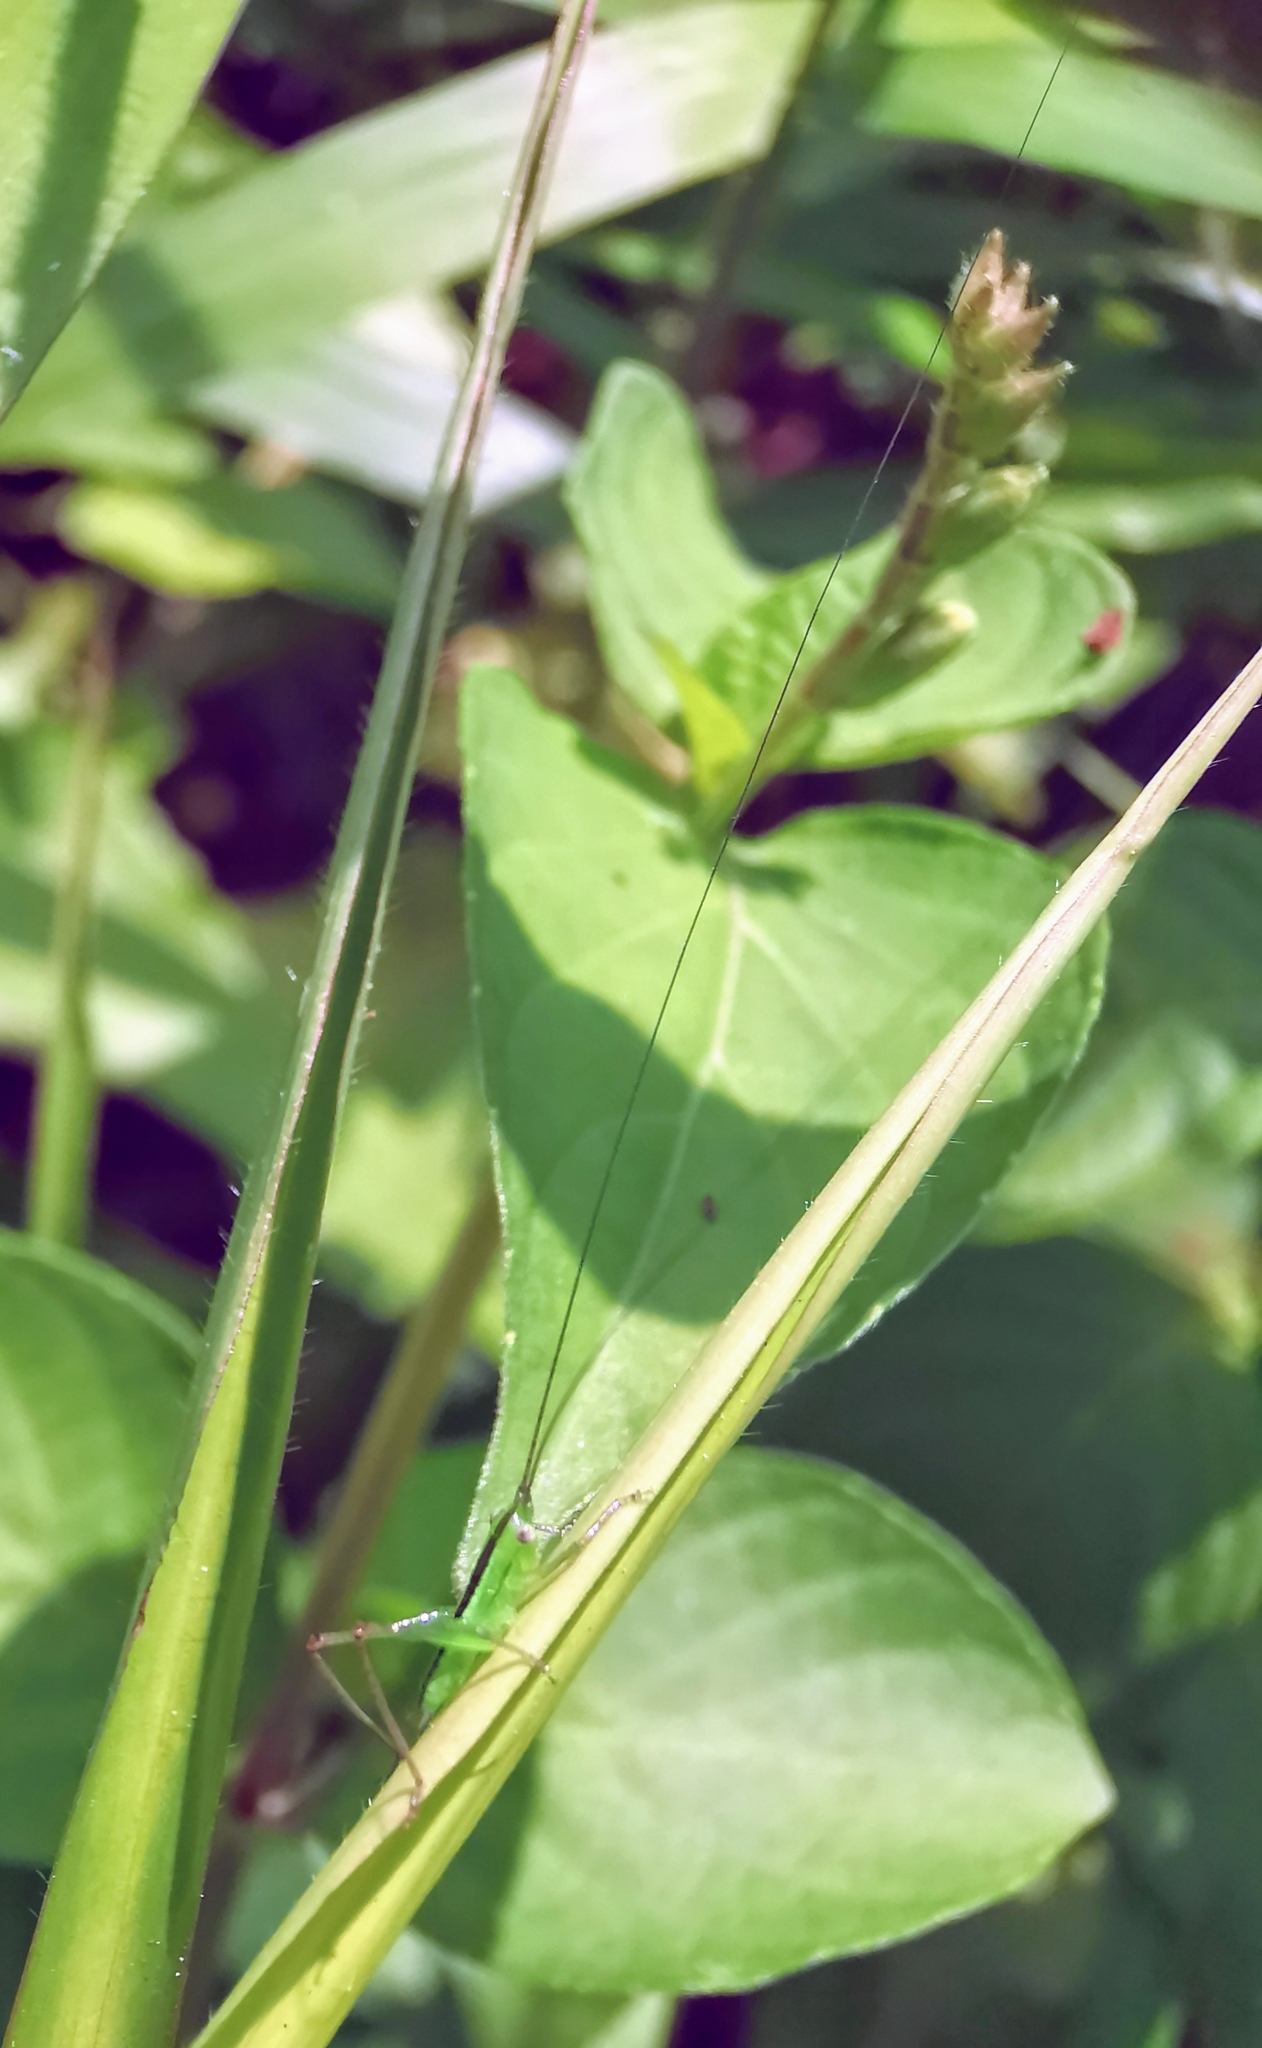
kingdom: Animalia
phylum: Arthropoda
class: Insecta
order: Orthoptera
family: Tettigoniidae
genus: Conocephalus
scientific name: Conocephalus maculatus
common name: Spotted meadow katydid
